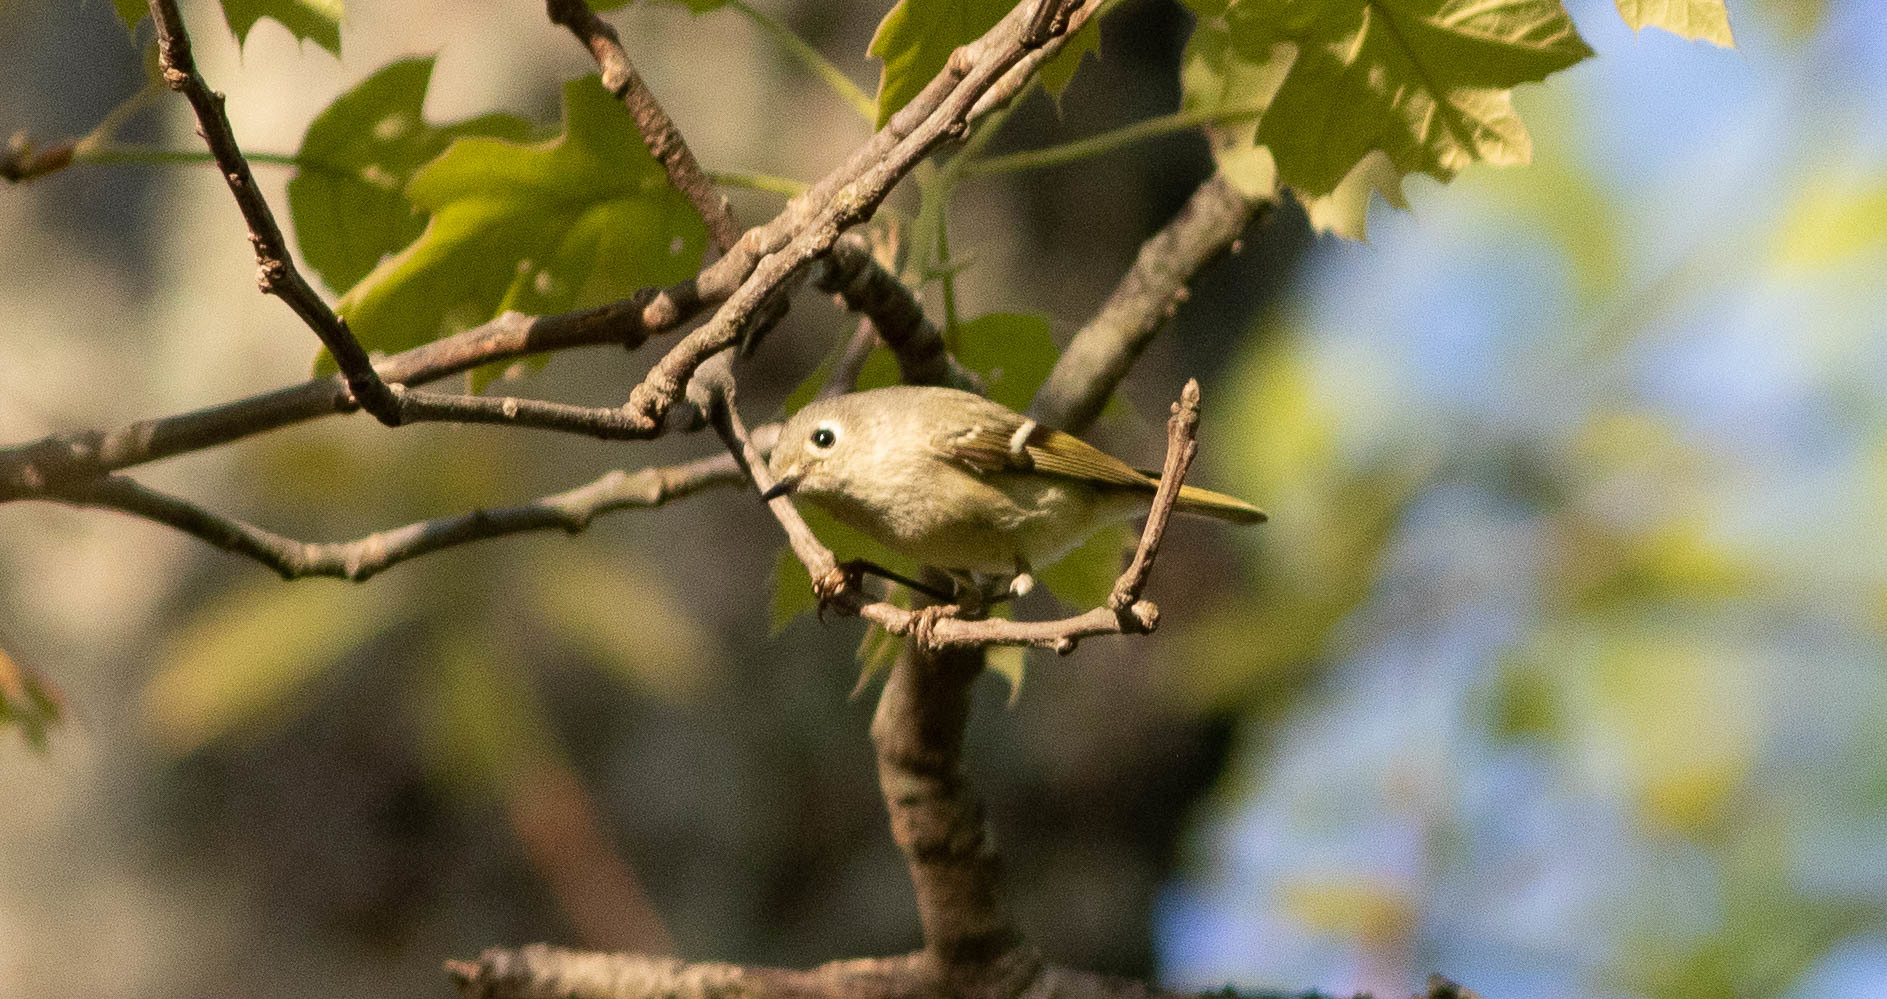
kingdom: Animalia
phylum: Chordata
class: Aves
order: Passeriformes
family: Regulidae
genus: Regulus
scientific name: Regulus calendula
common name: Ruby-crowned kinglet
